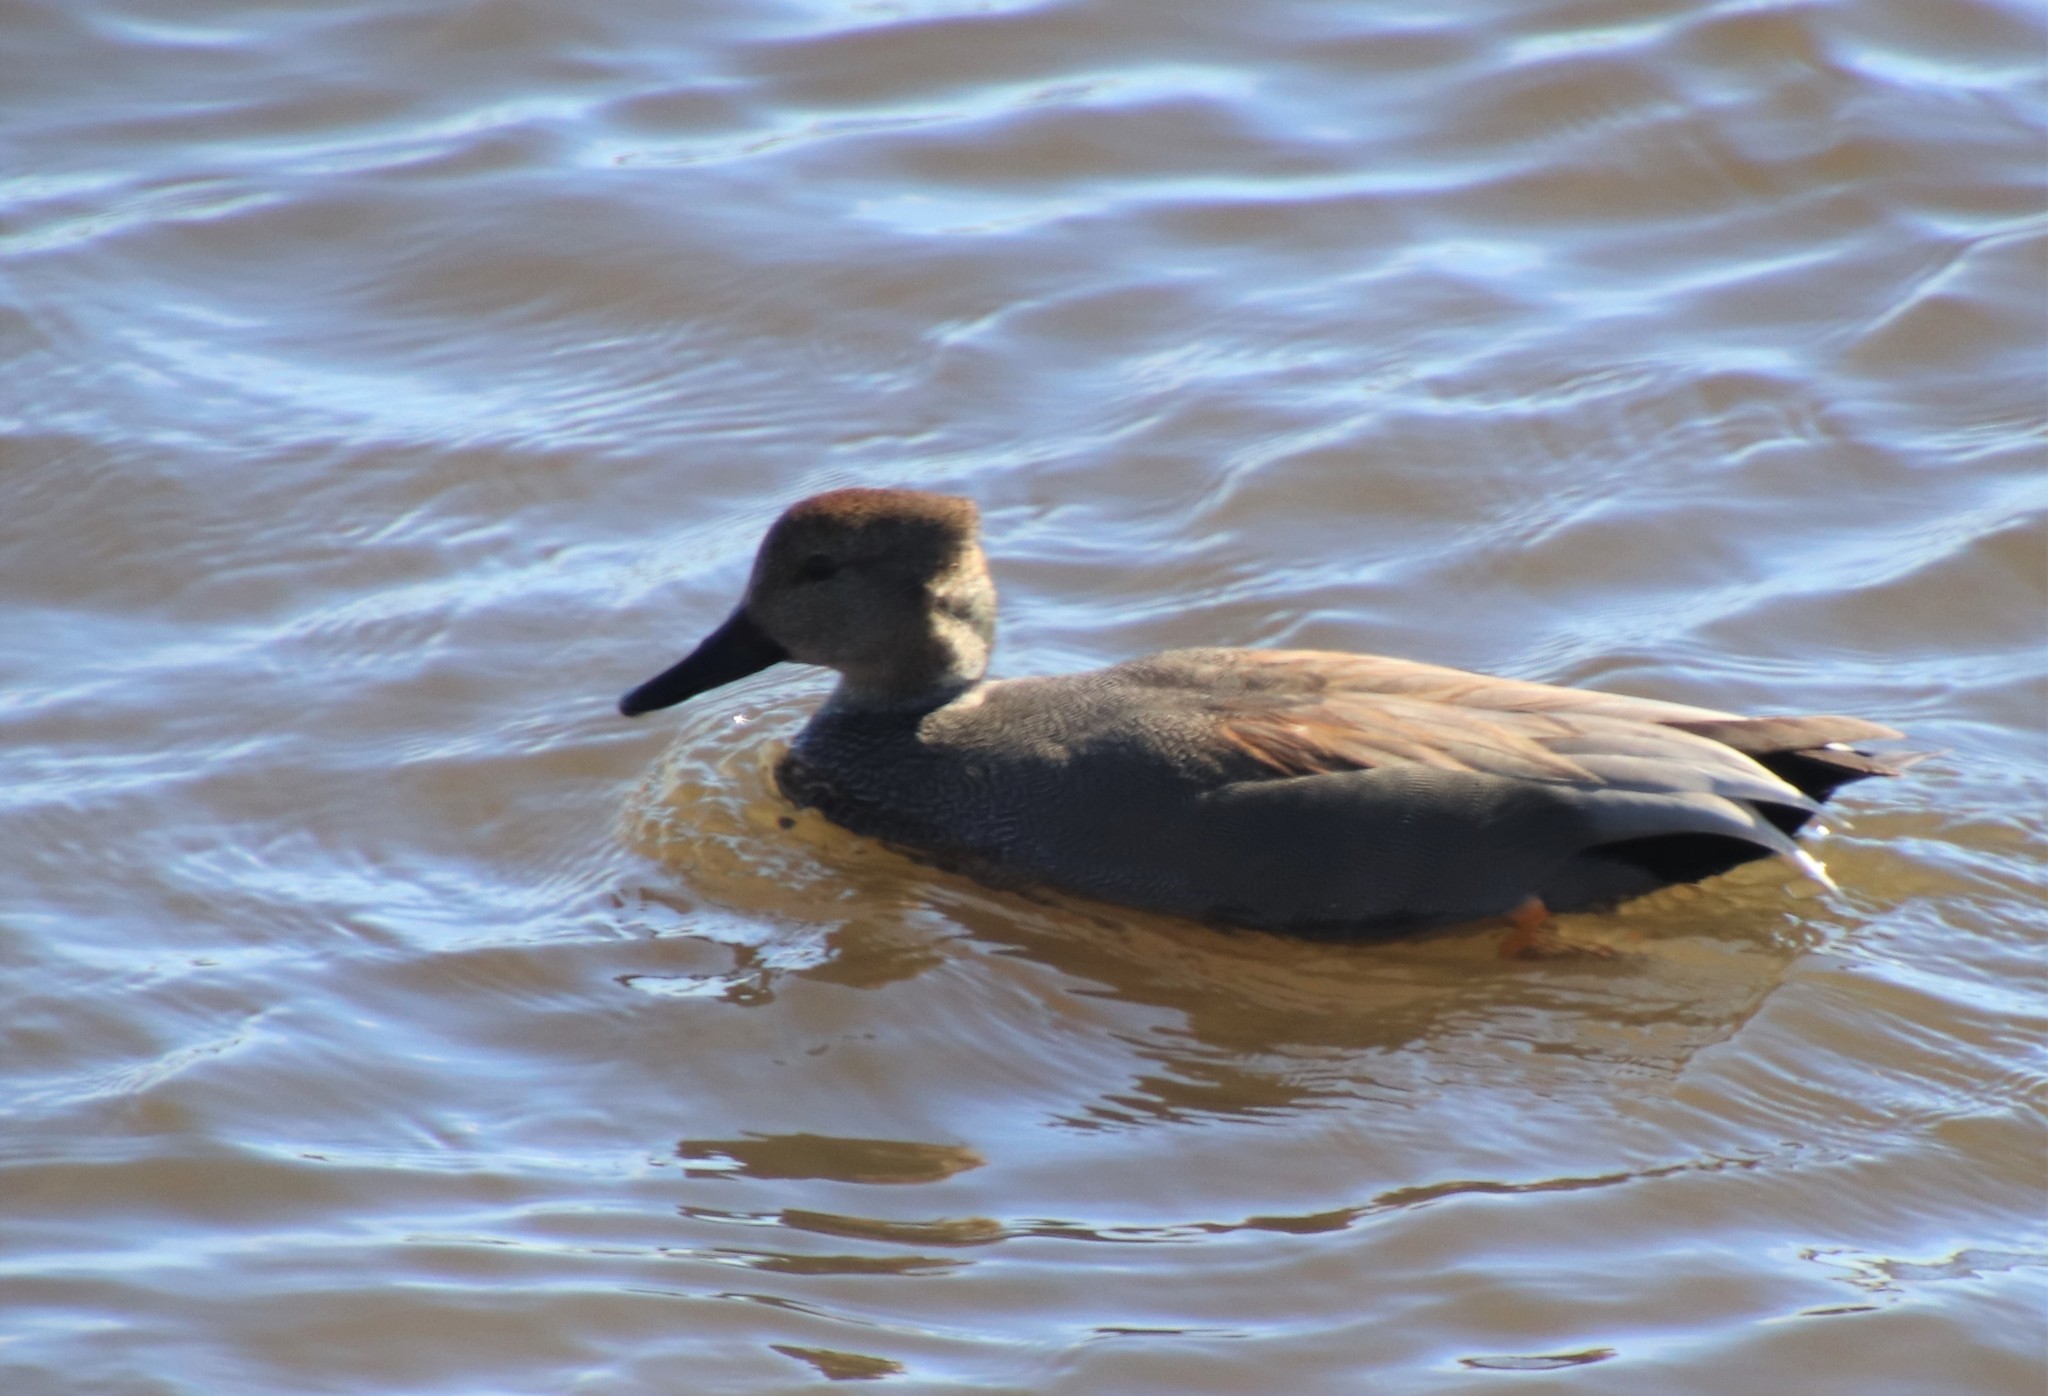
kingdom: Animalia
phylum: Chordata
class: Aves
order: Anseriformes
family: Anatidae
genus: Mareca
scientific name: Mareca strepera
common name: Gadwall
